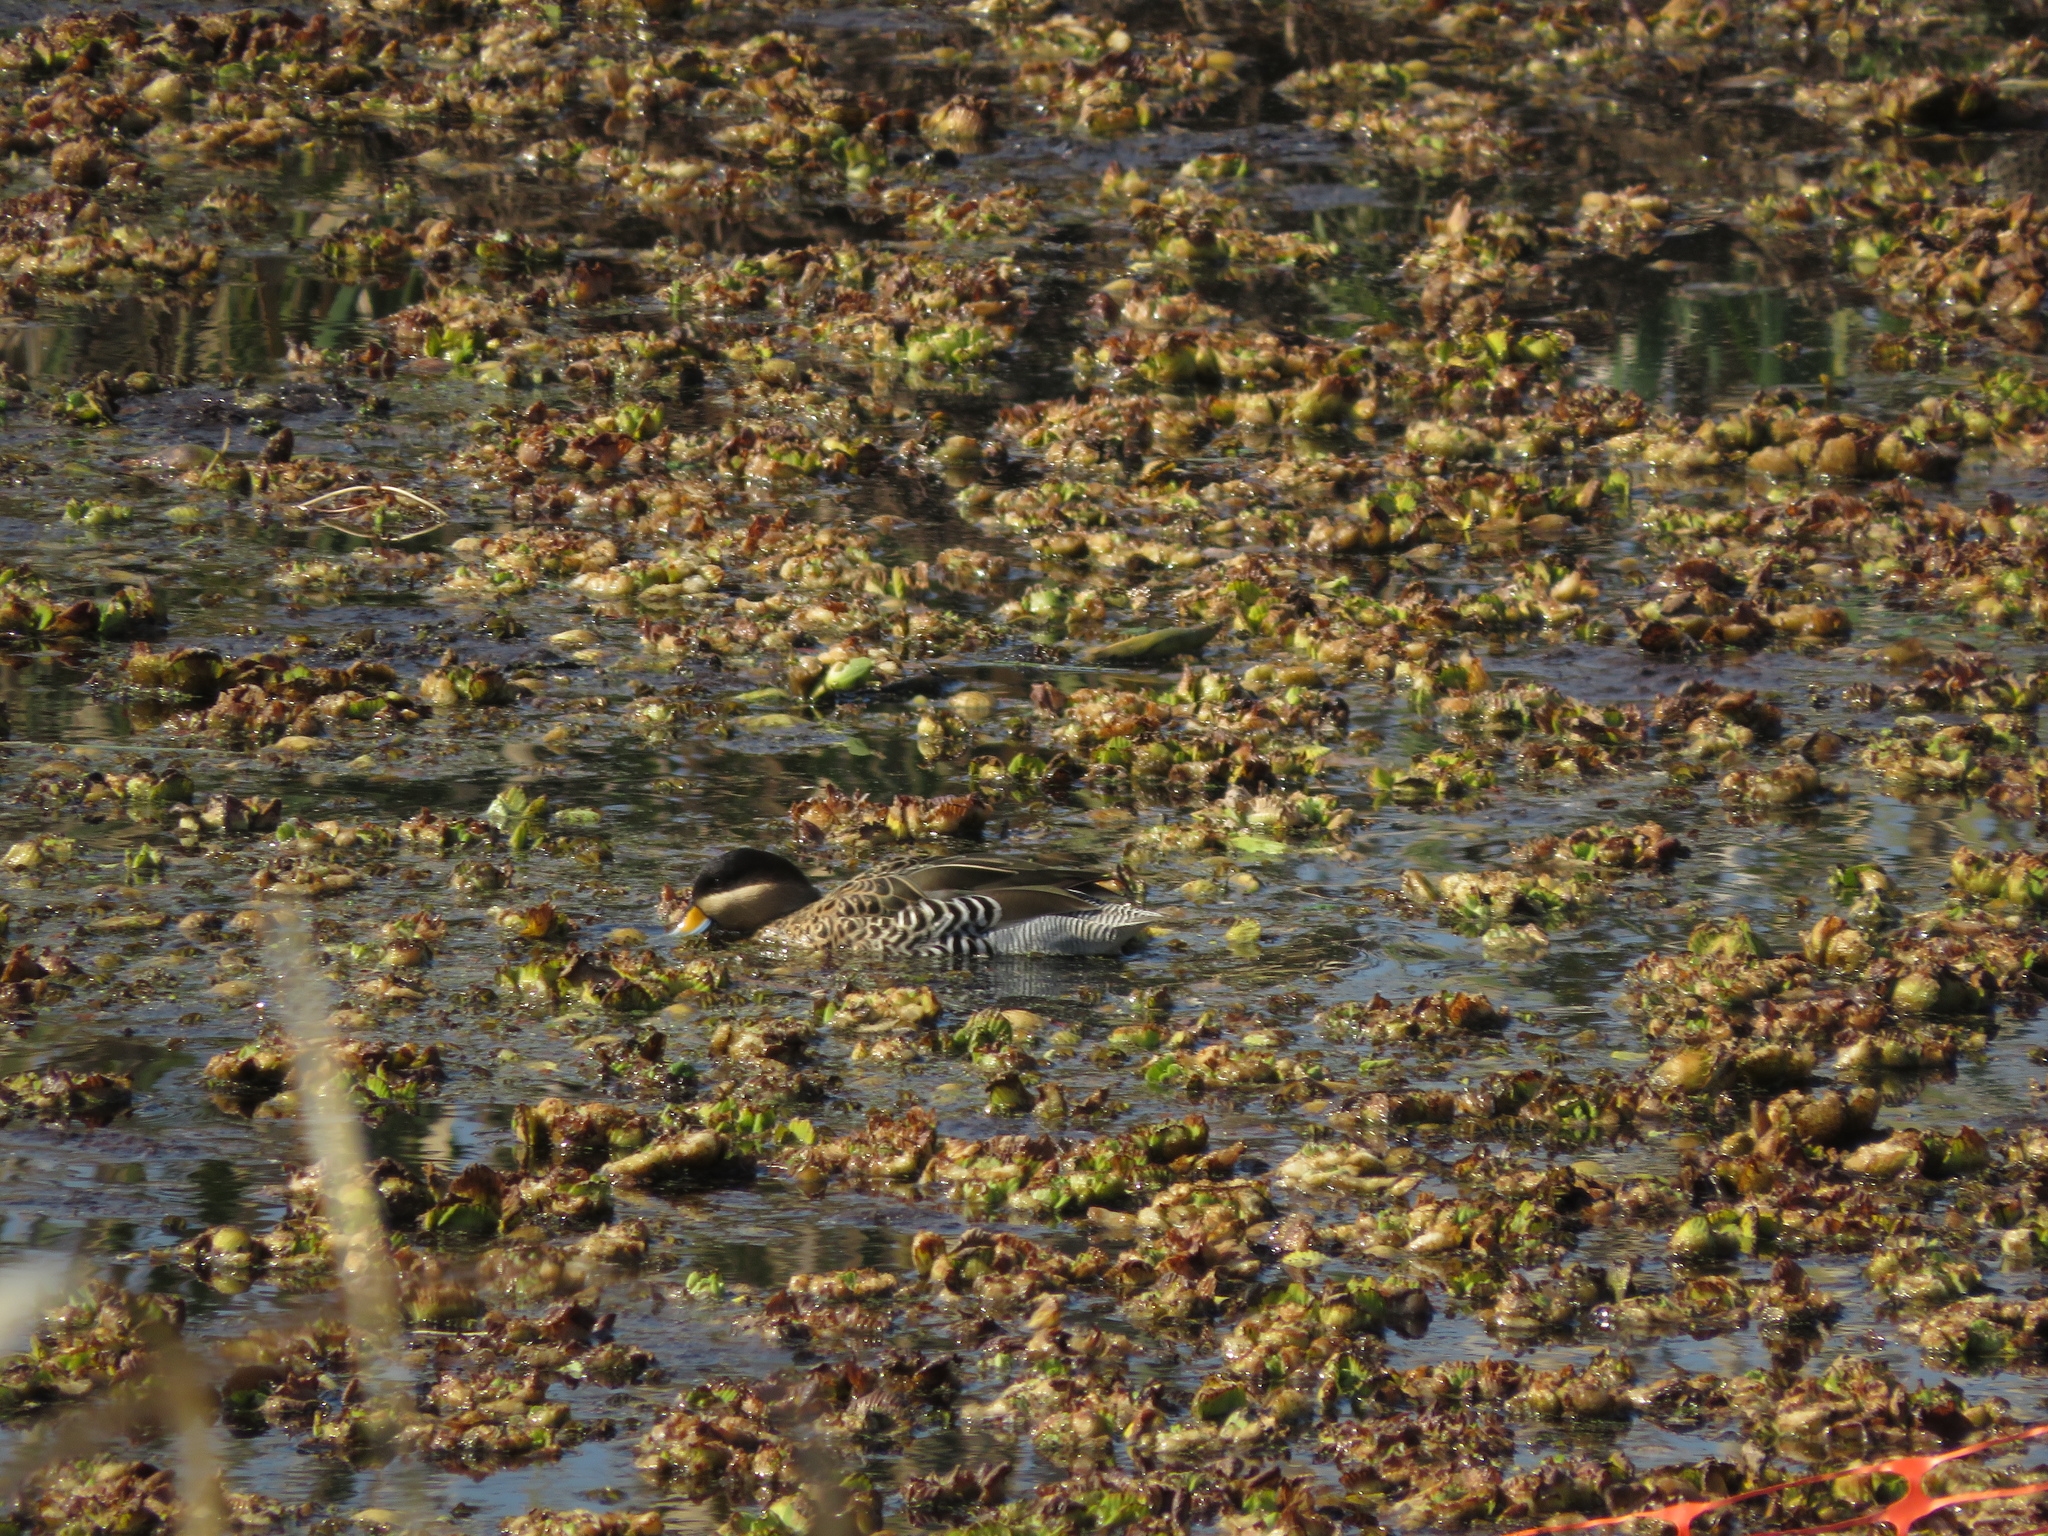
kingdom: Animalia
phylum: Chordata
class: Aves
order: Anseriformes
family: Anatidae
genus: Spatula
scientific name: Spatula versicolor
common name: Silver teal
